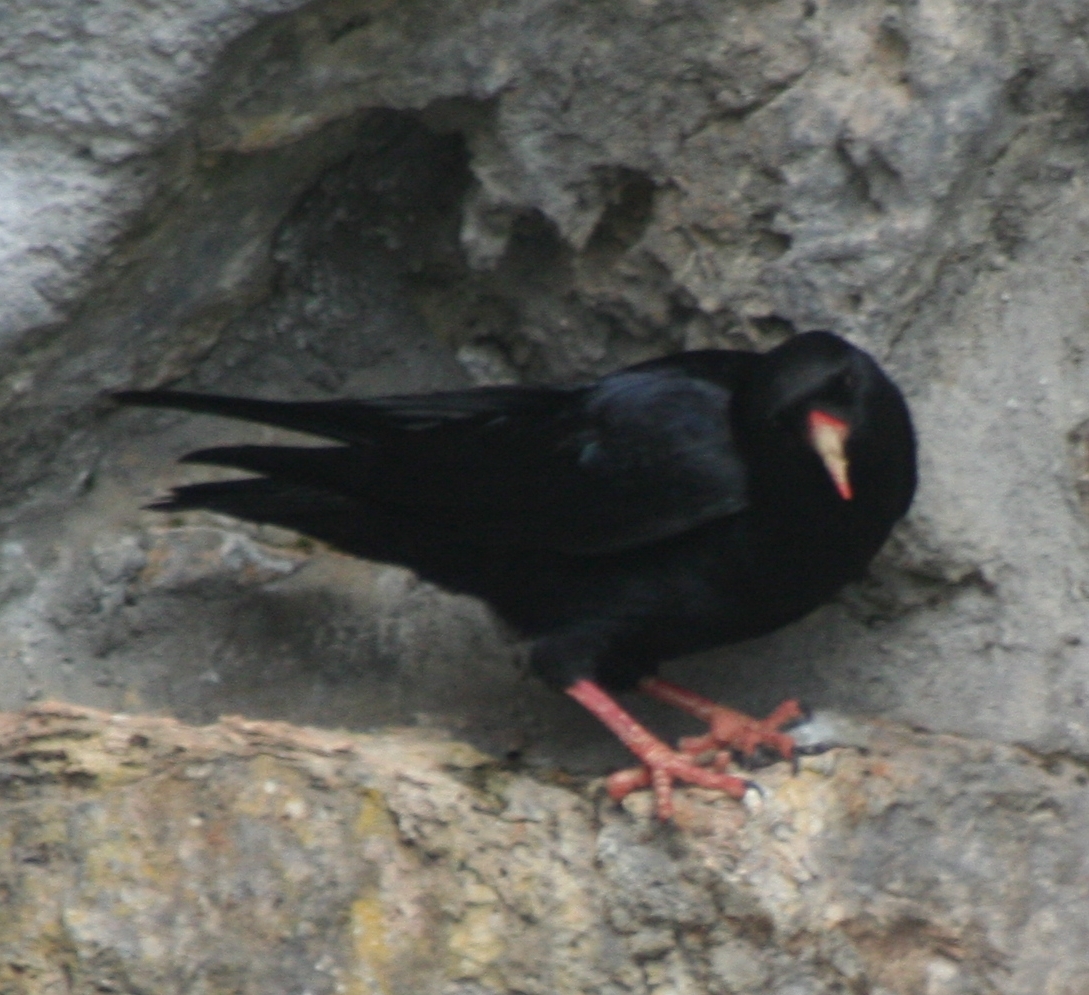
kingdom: Animalia
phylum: Chordata
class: Aves
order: Passeriformes
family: Corvidae
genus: Pyrrhocorax
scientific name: Pyrrhocorax pyrrhocorax
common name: Red-billed chough
